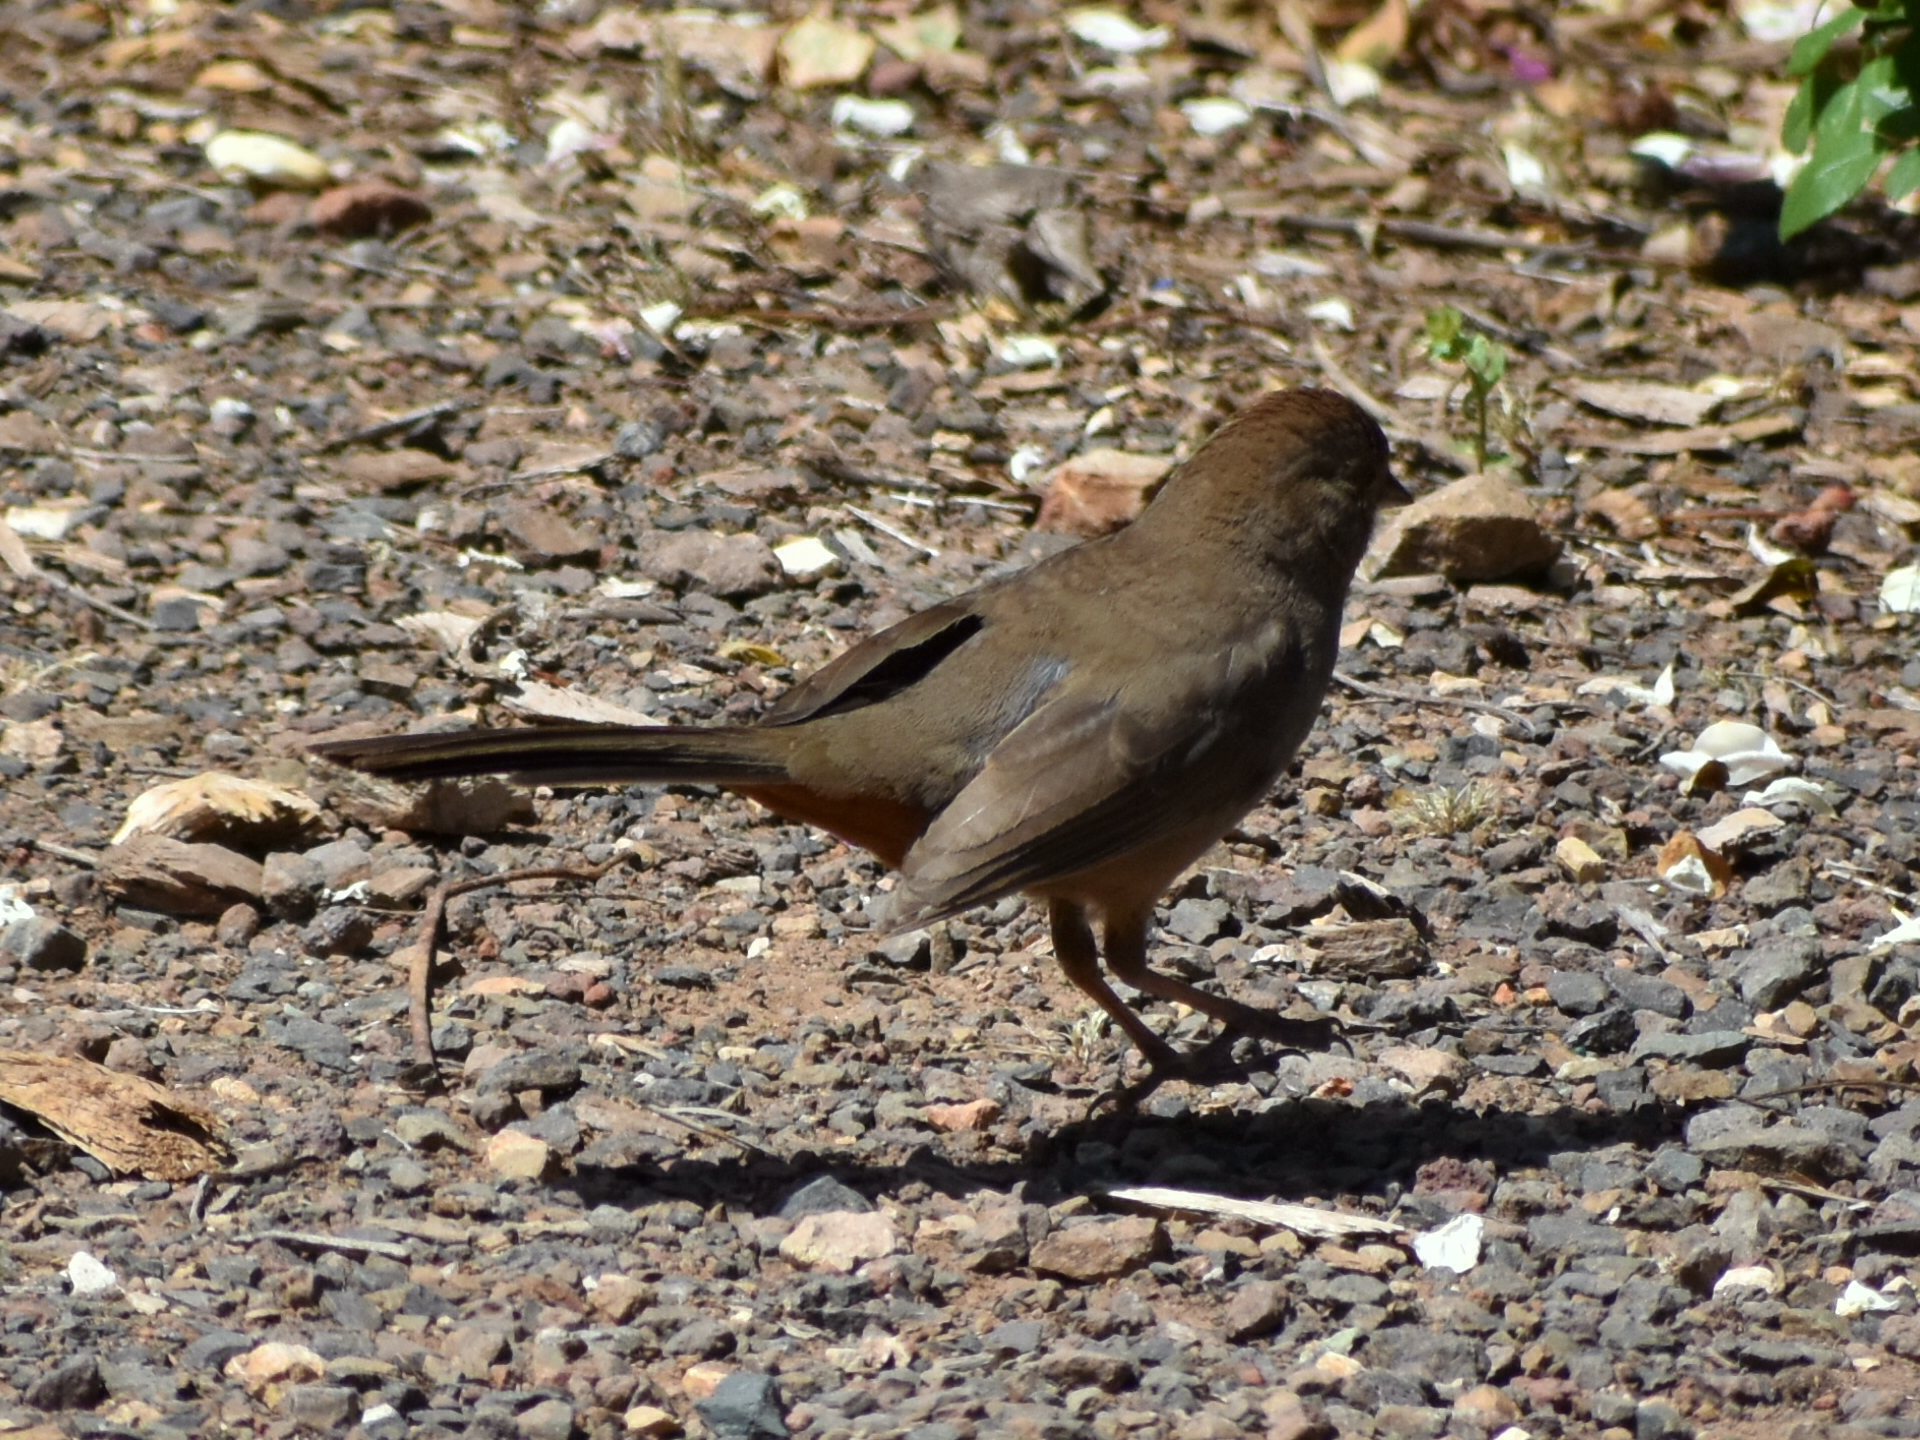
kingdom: Animalia
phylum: Chordata
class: Aves
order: Passeriformes
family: Passerellidae
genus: Melozone
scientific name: Melozone crissalis
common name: California towhee
